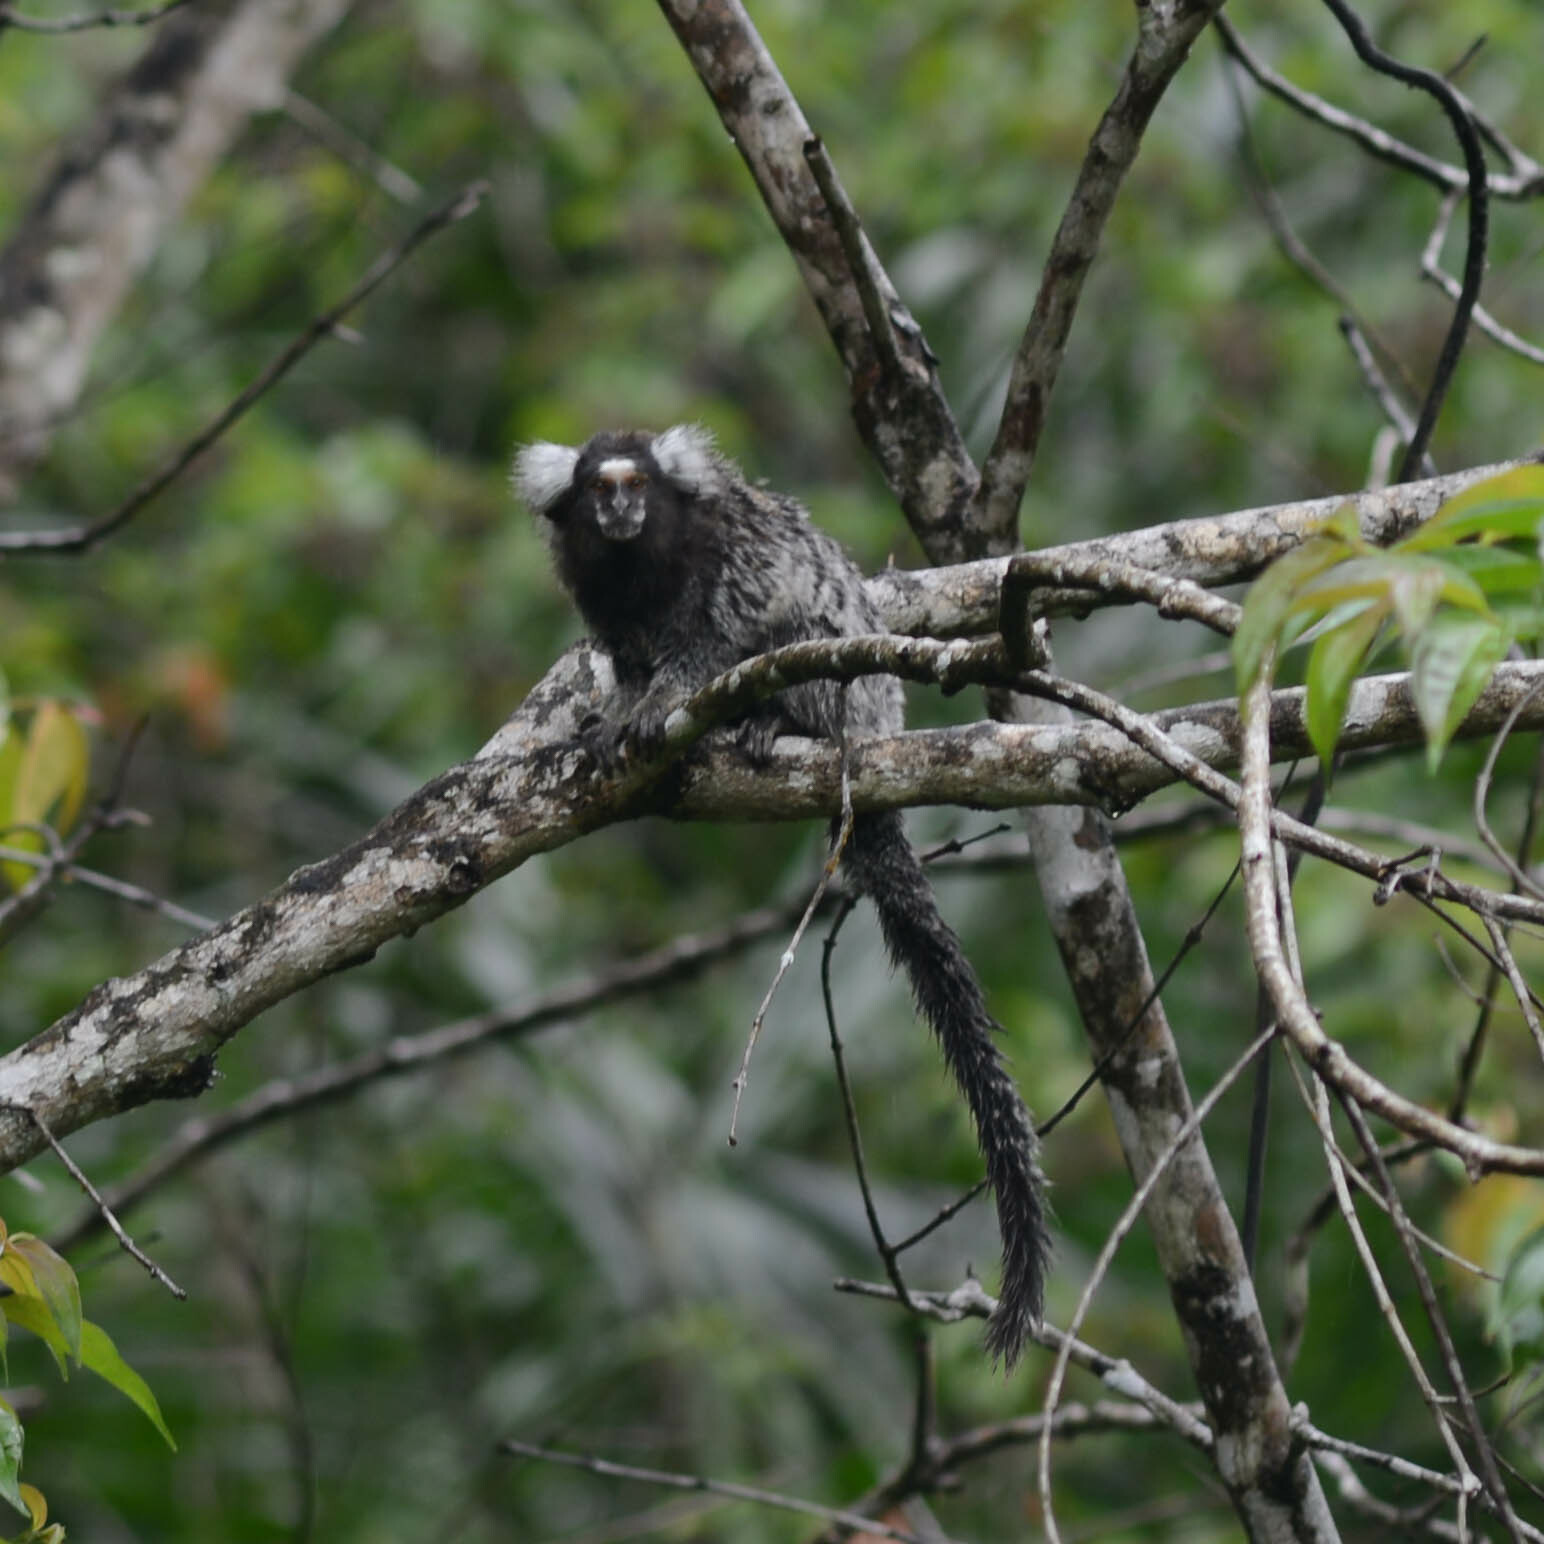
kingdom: Animalia
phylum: Chordata
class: Mammalia
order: Primates
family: Callitrichidae
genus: Callithrix
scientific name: Callithrix jacchus
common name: Common marmoset
